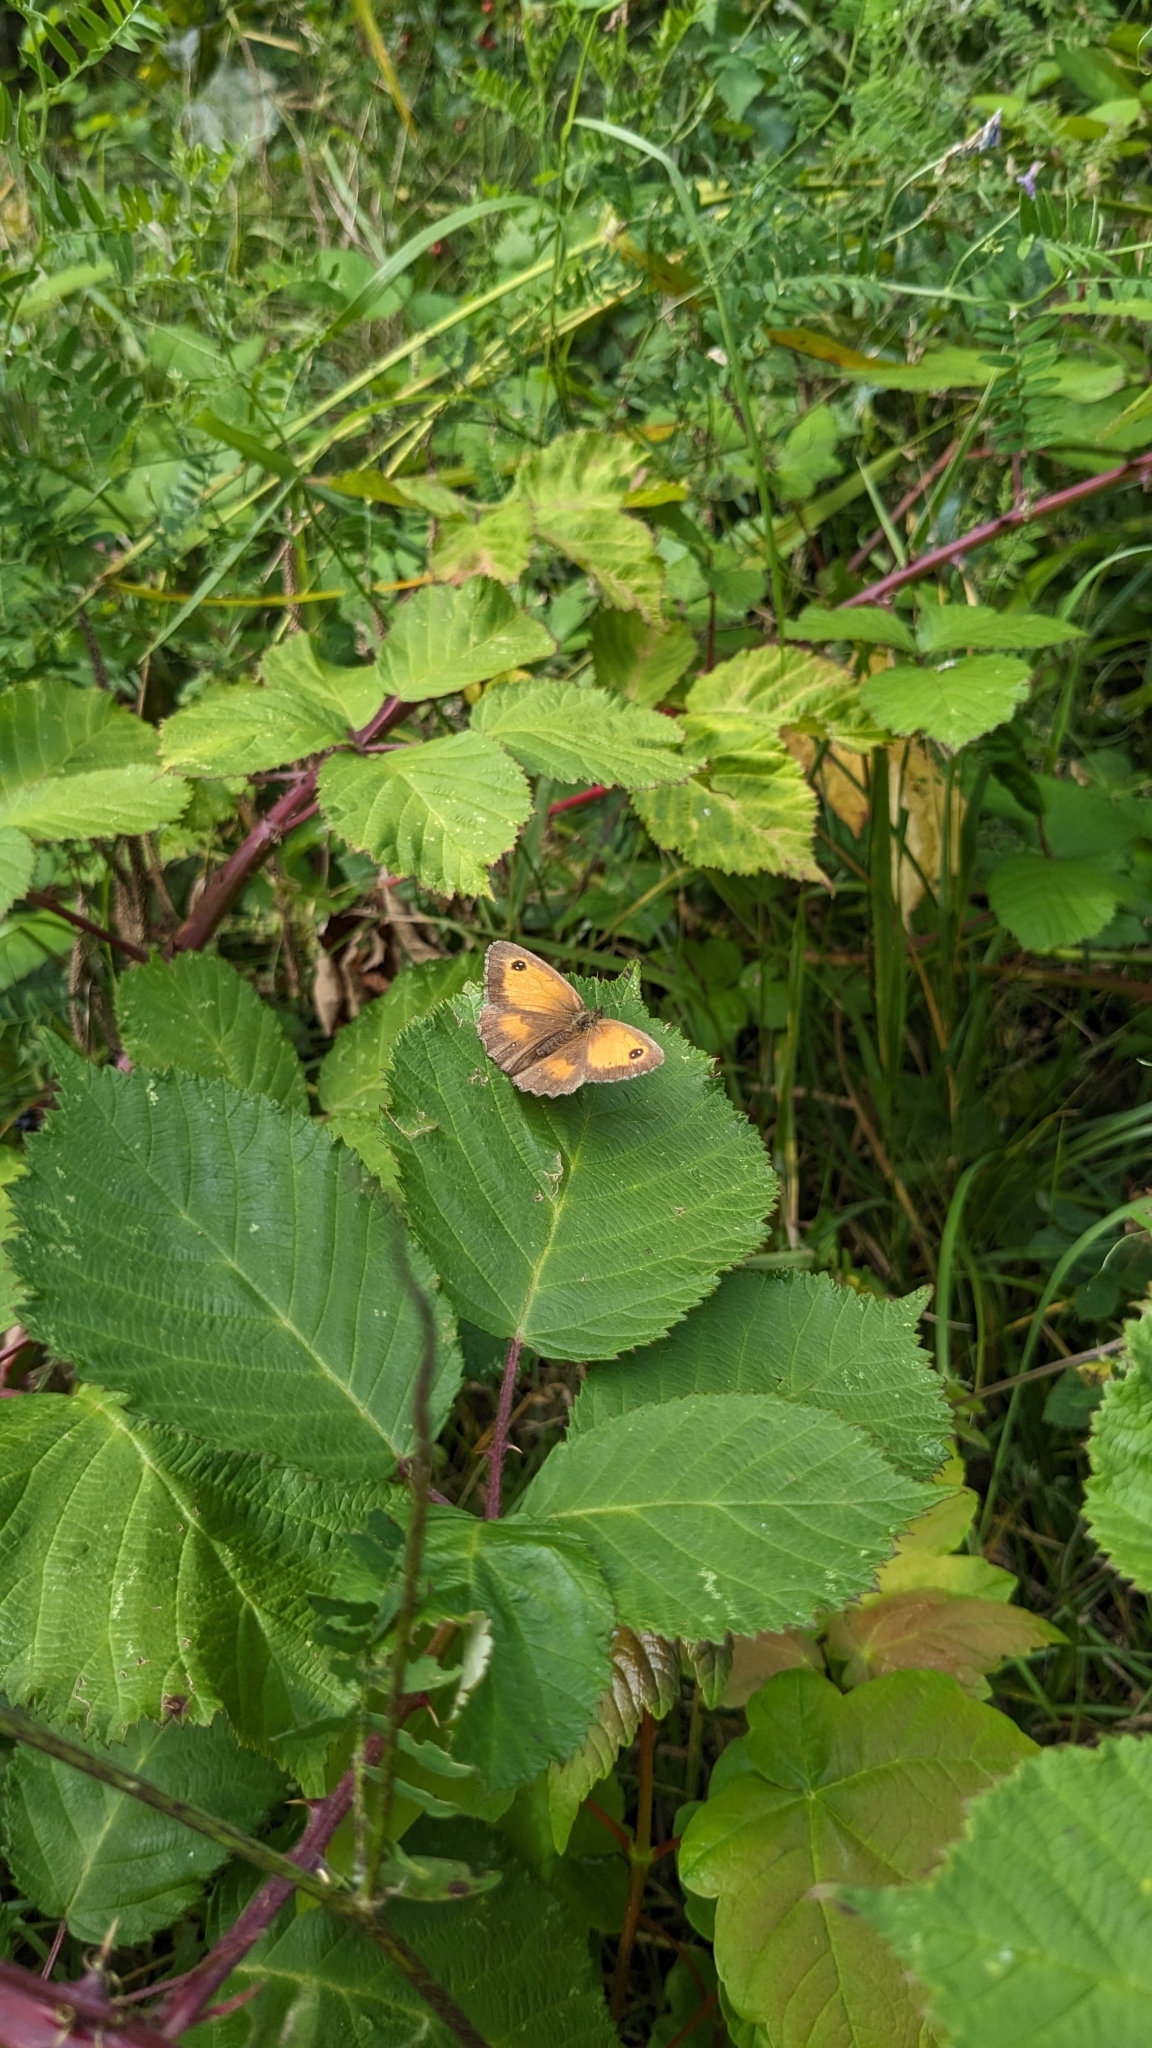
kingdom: Animalia
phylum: Arthropoda
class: Insecta
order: Lepidoptera
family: Nymphalidae
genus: Pyronia
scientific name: Pyronia tithonus
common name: Gatekeeper
